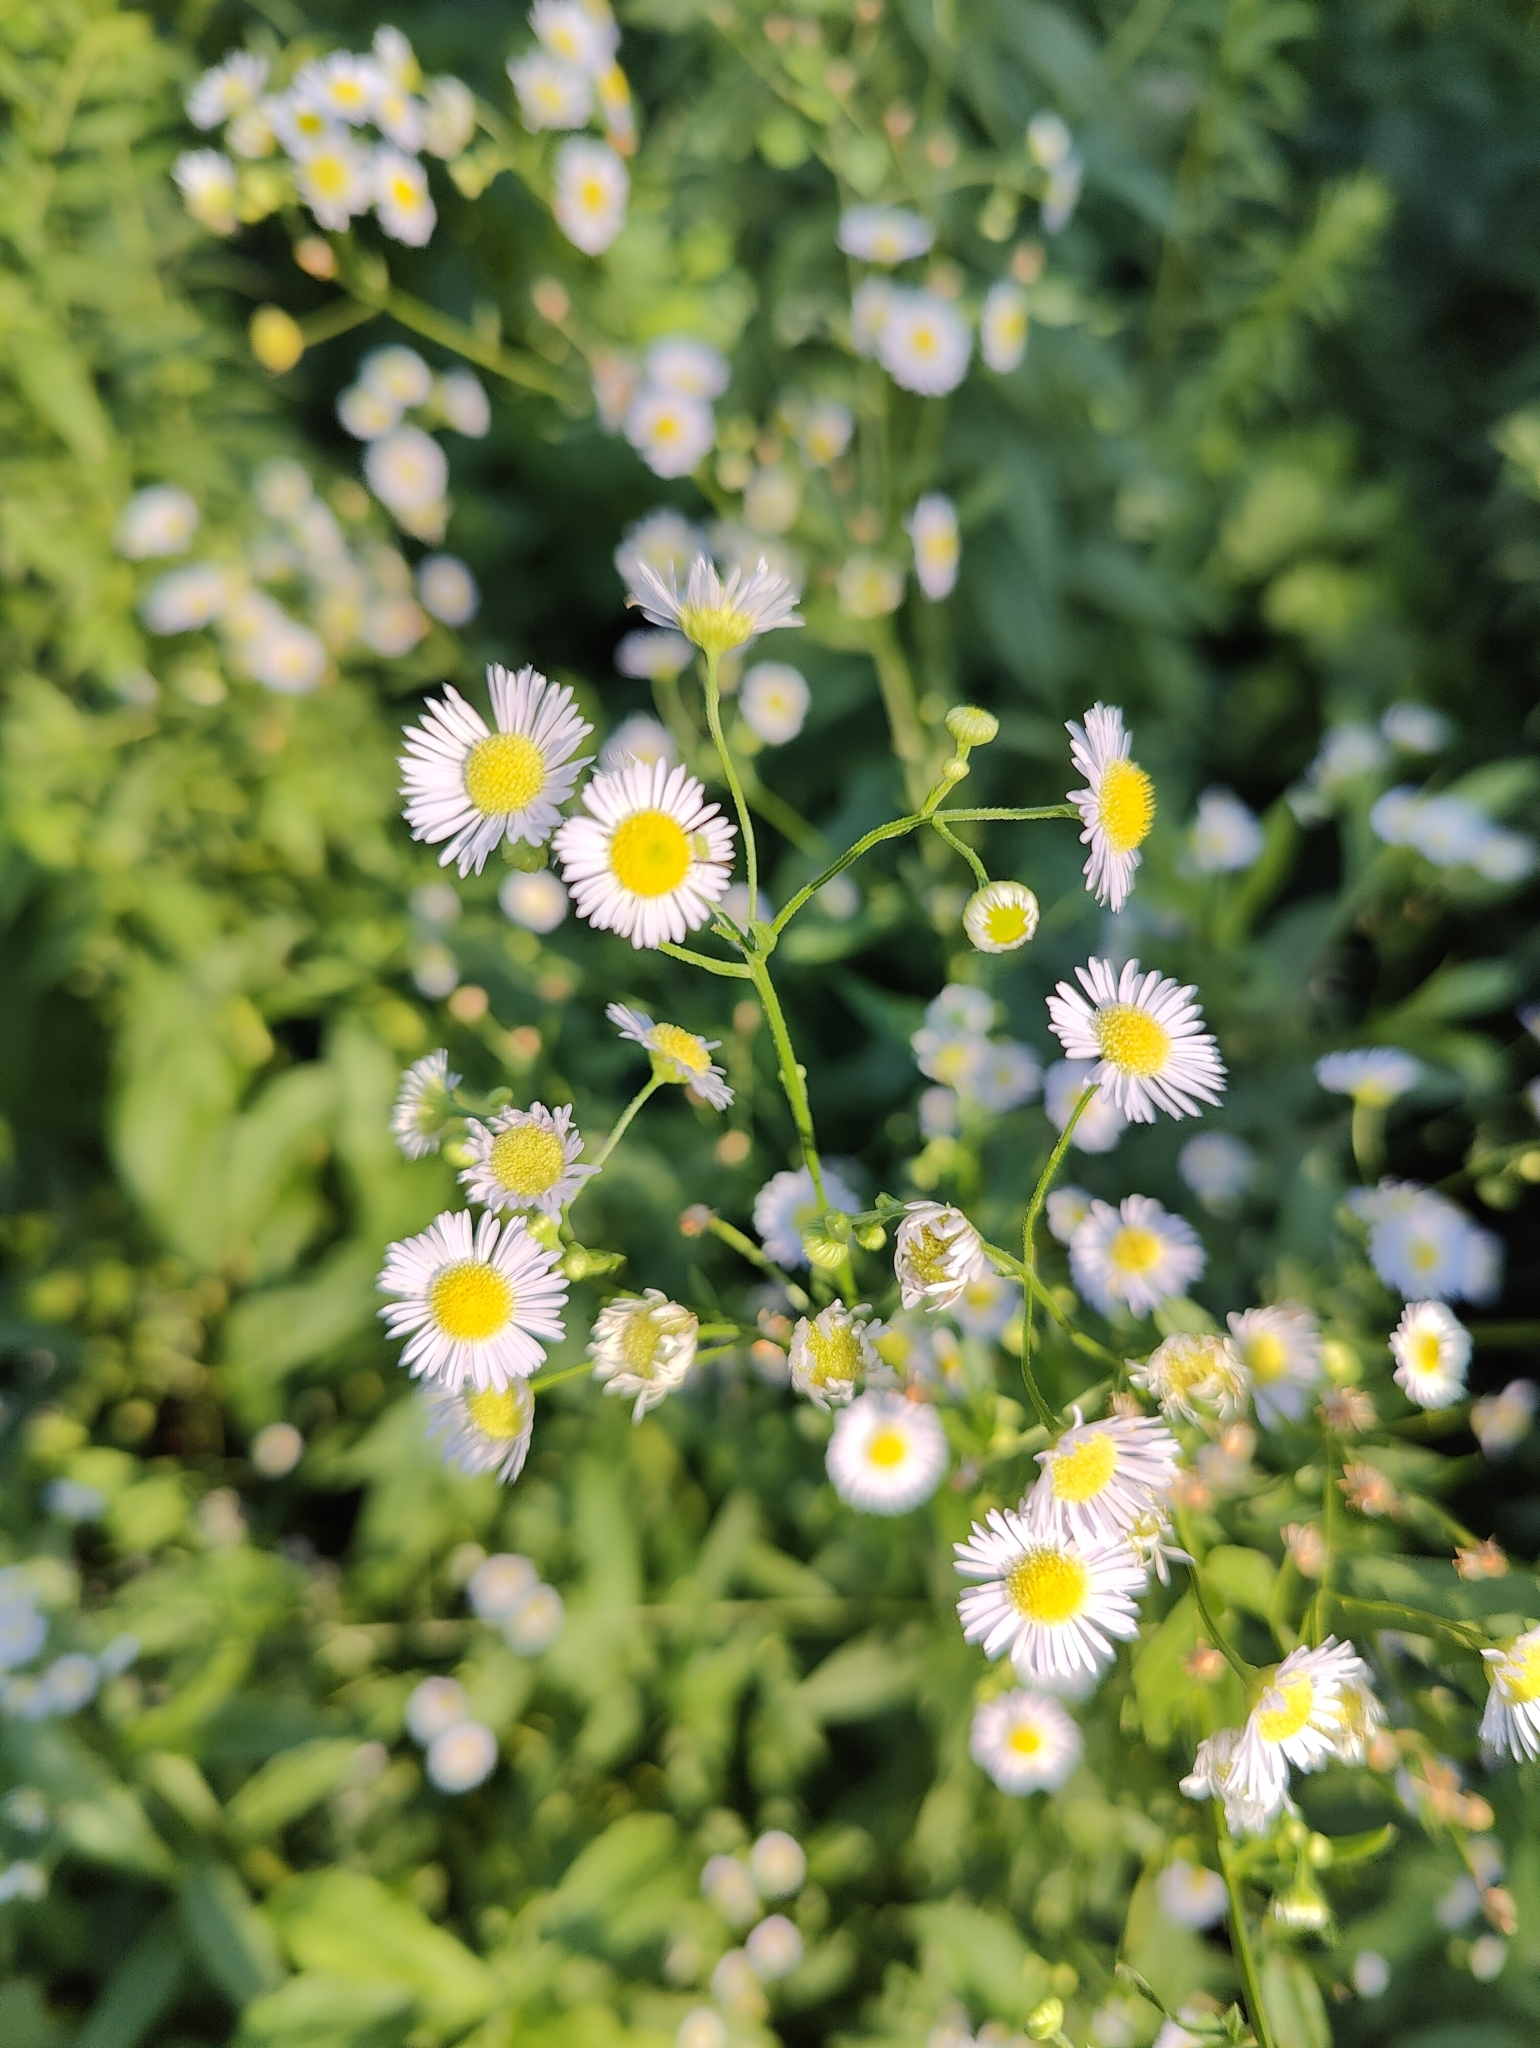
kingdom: Plantae
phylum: Tracheophyta
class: Magnoliopsida
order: Asterales
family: Asteraceae
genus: Erigeron
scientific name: Erigeron strigosus
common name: Common eastern fleabane
